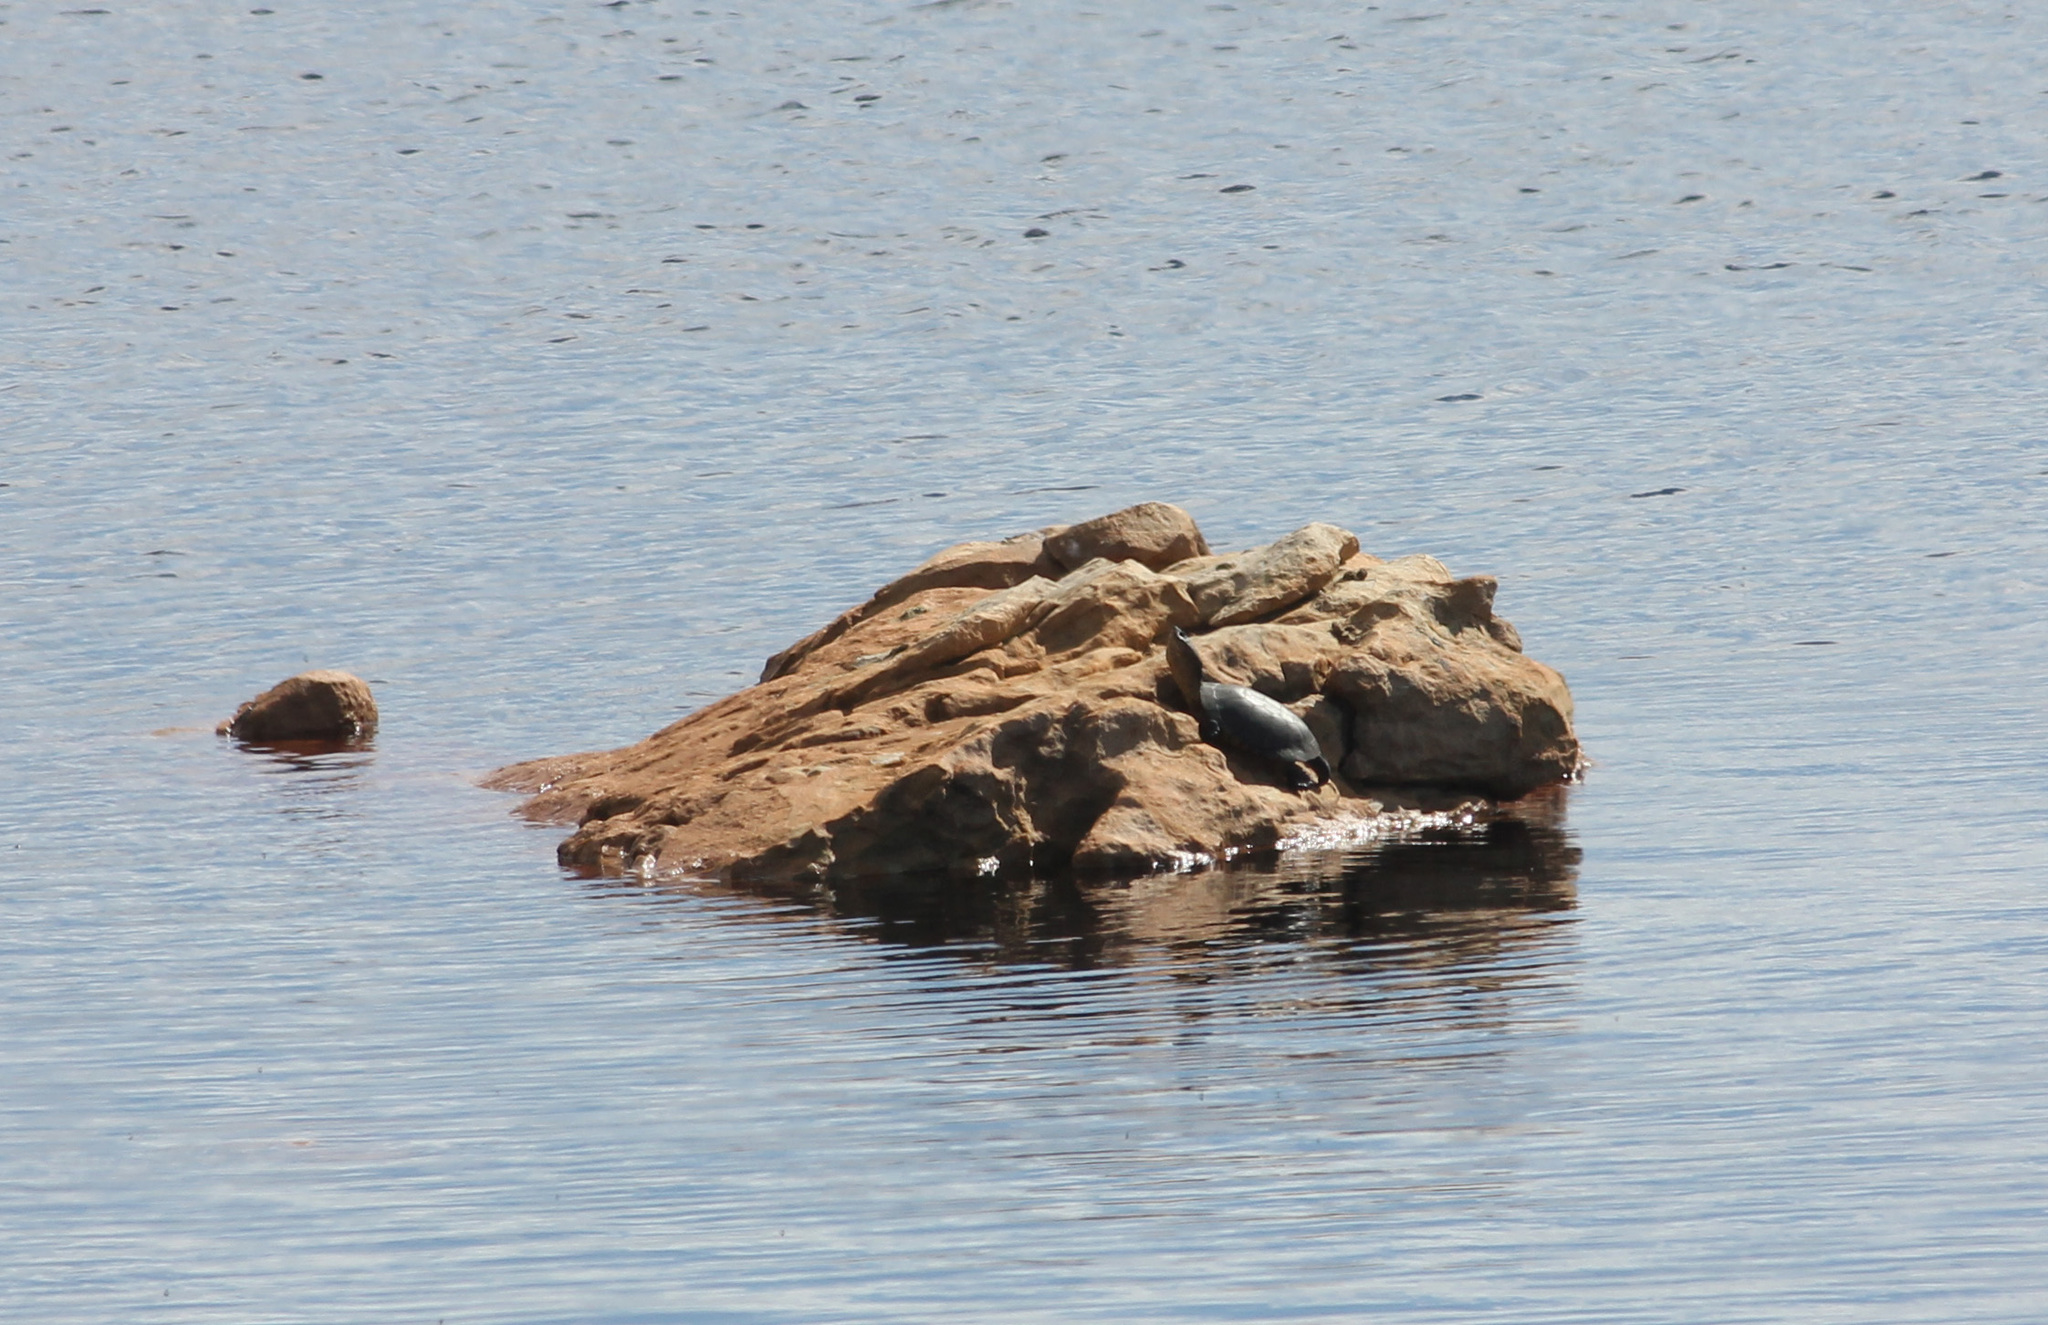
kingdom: Animalia
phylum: Chordata
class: Testudines
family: Pelomedusidae
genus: Pelomedusa
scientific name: Pelomedusa galeata
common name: South african helmeted terrapin
